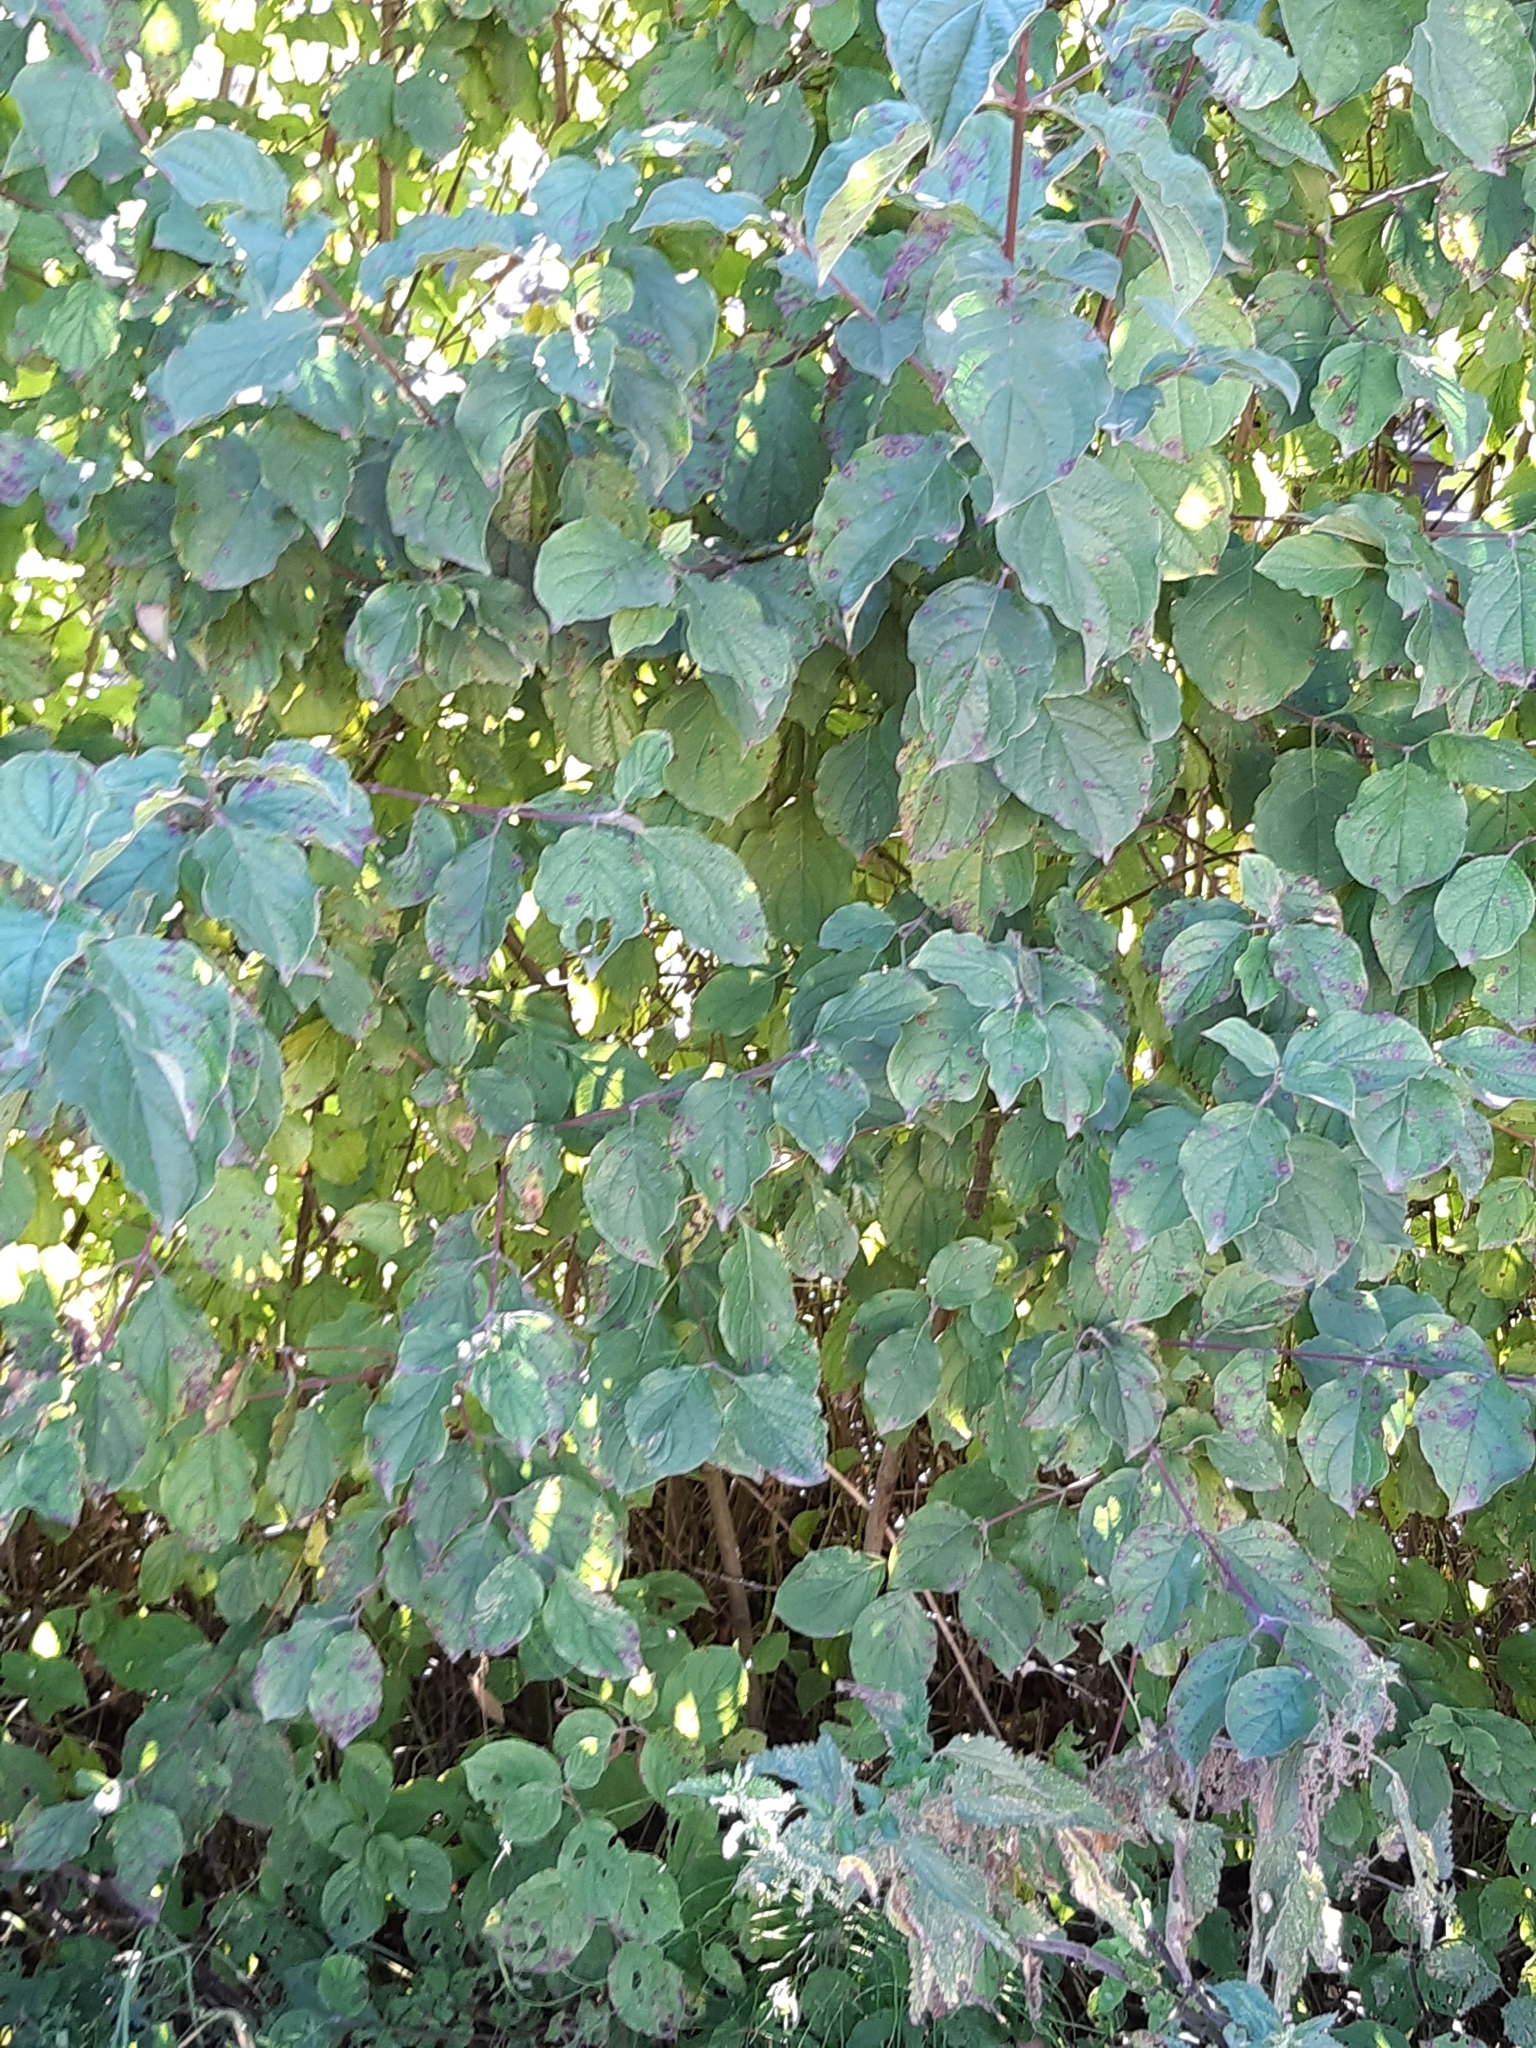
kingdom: Plantae
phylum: Tracheophyta
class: Magnoliopsida
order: Cornales
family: Cornaceae
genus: Cornus
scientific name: Cornus sanguinea
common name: Dogwood
